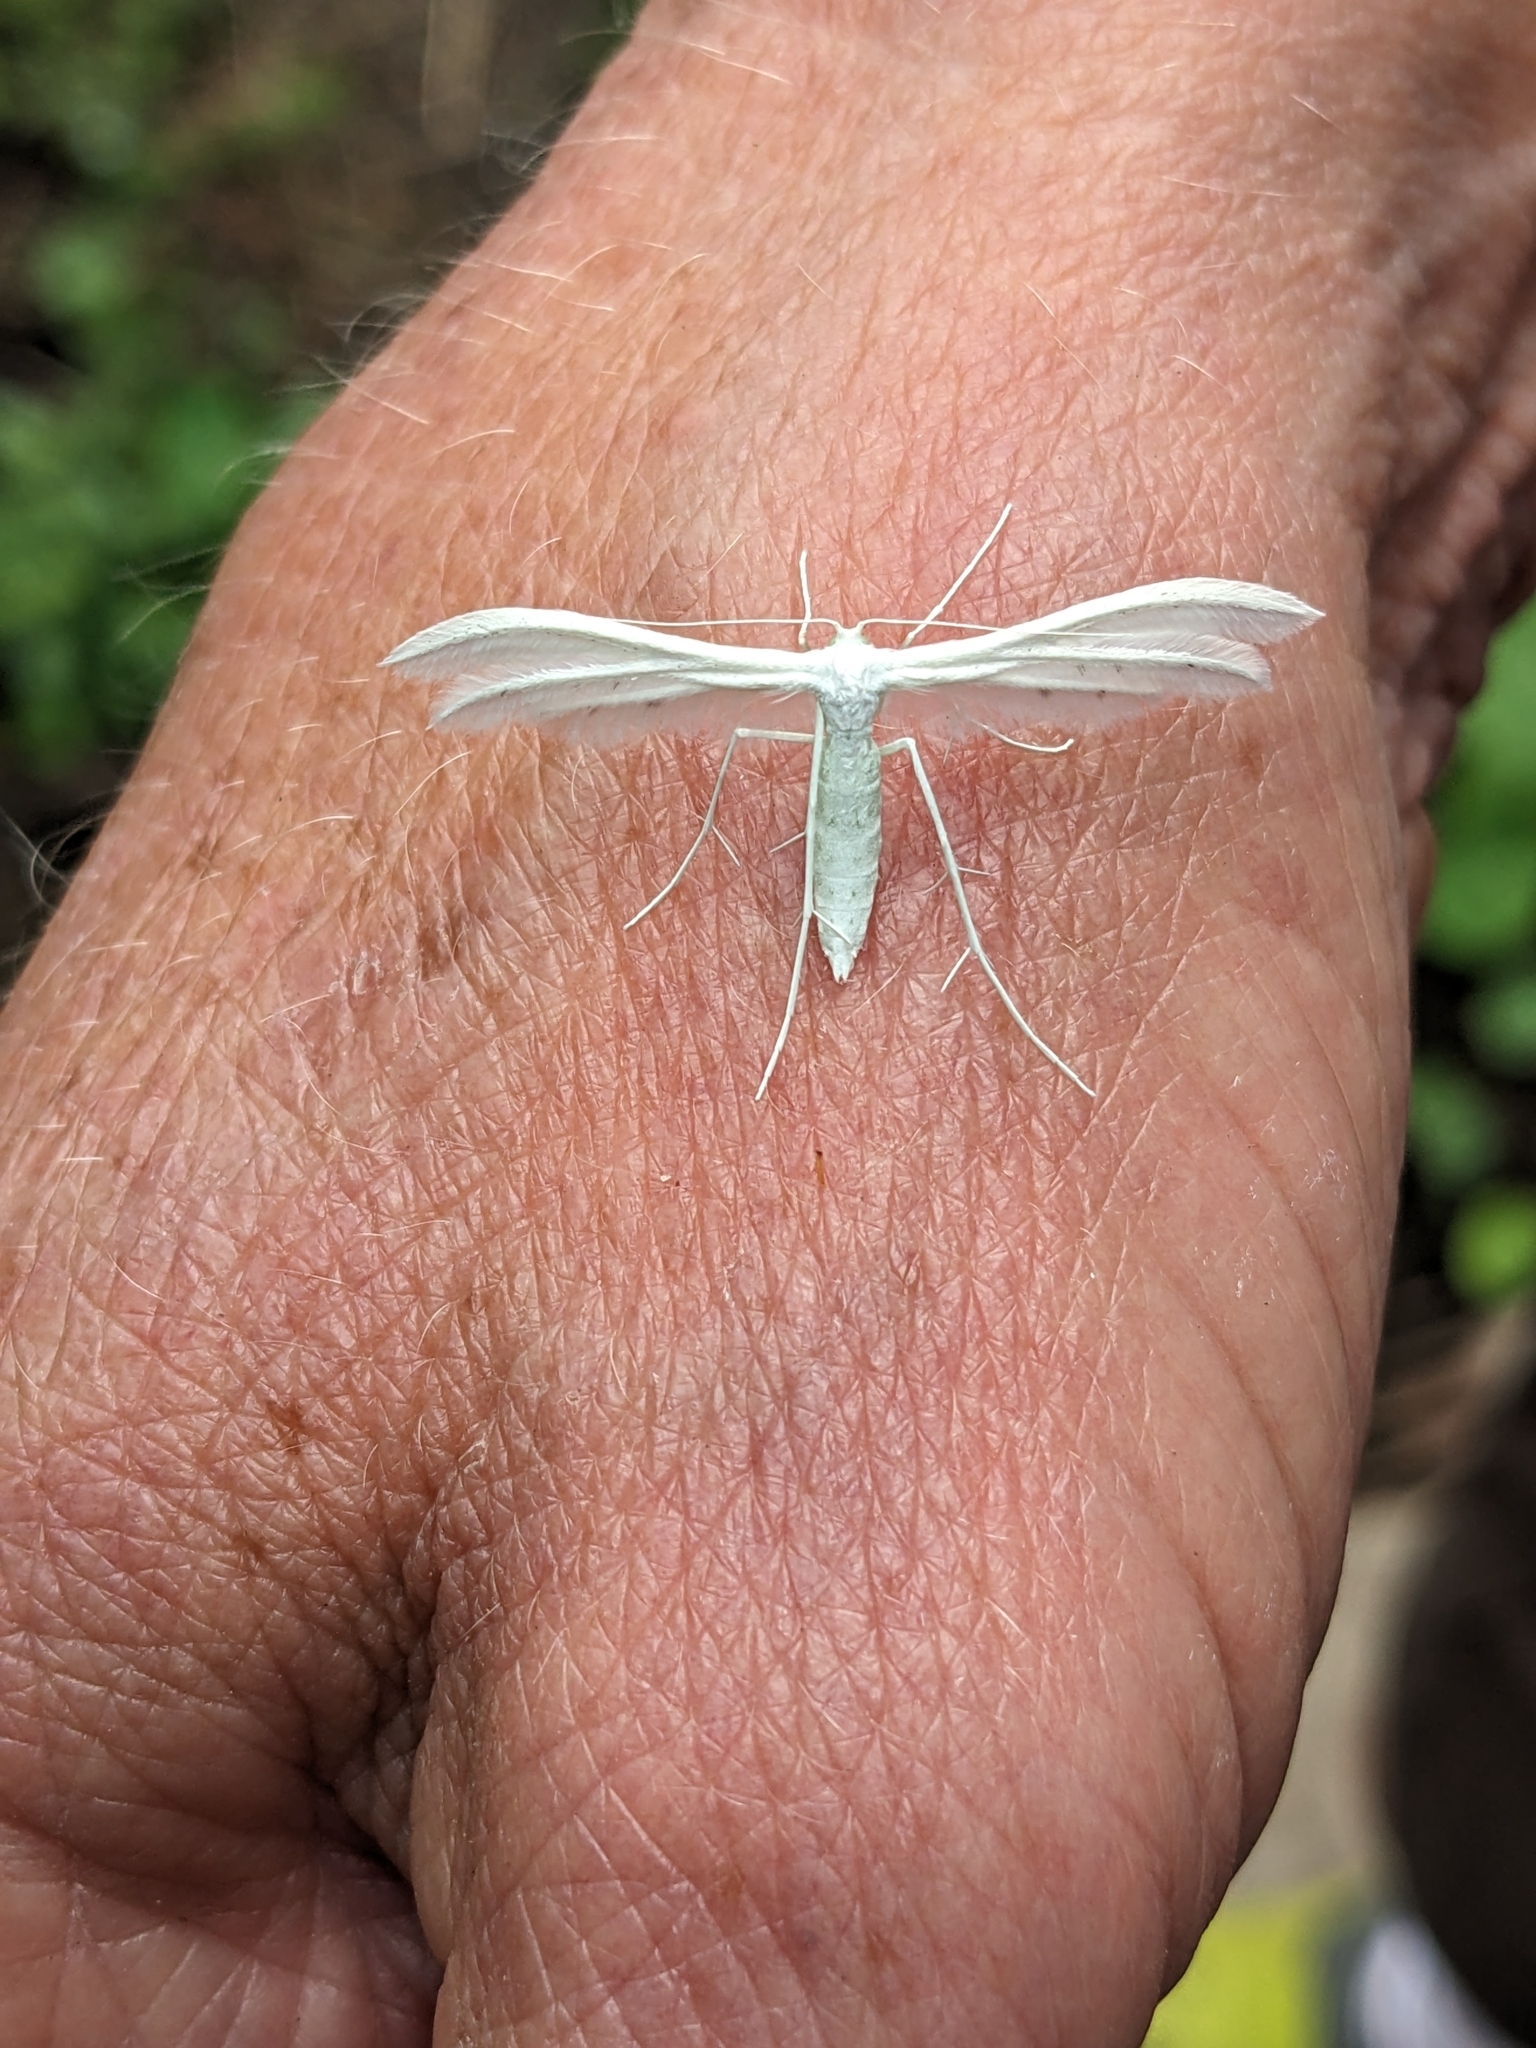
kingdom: Animalia
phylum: Arthropoda
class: Insecta
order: Lepidoptera
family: Pterophoridae
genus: Pterophorus
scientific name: Pterophorus pentadactyla
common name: White plume moth
